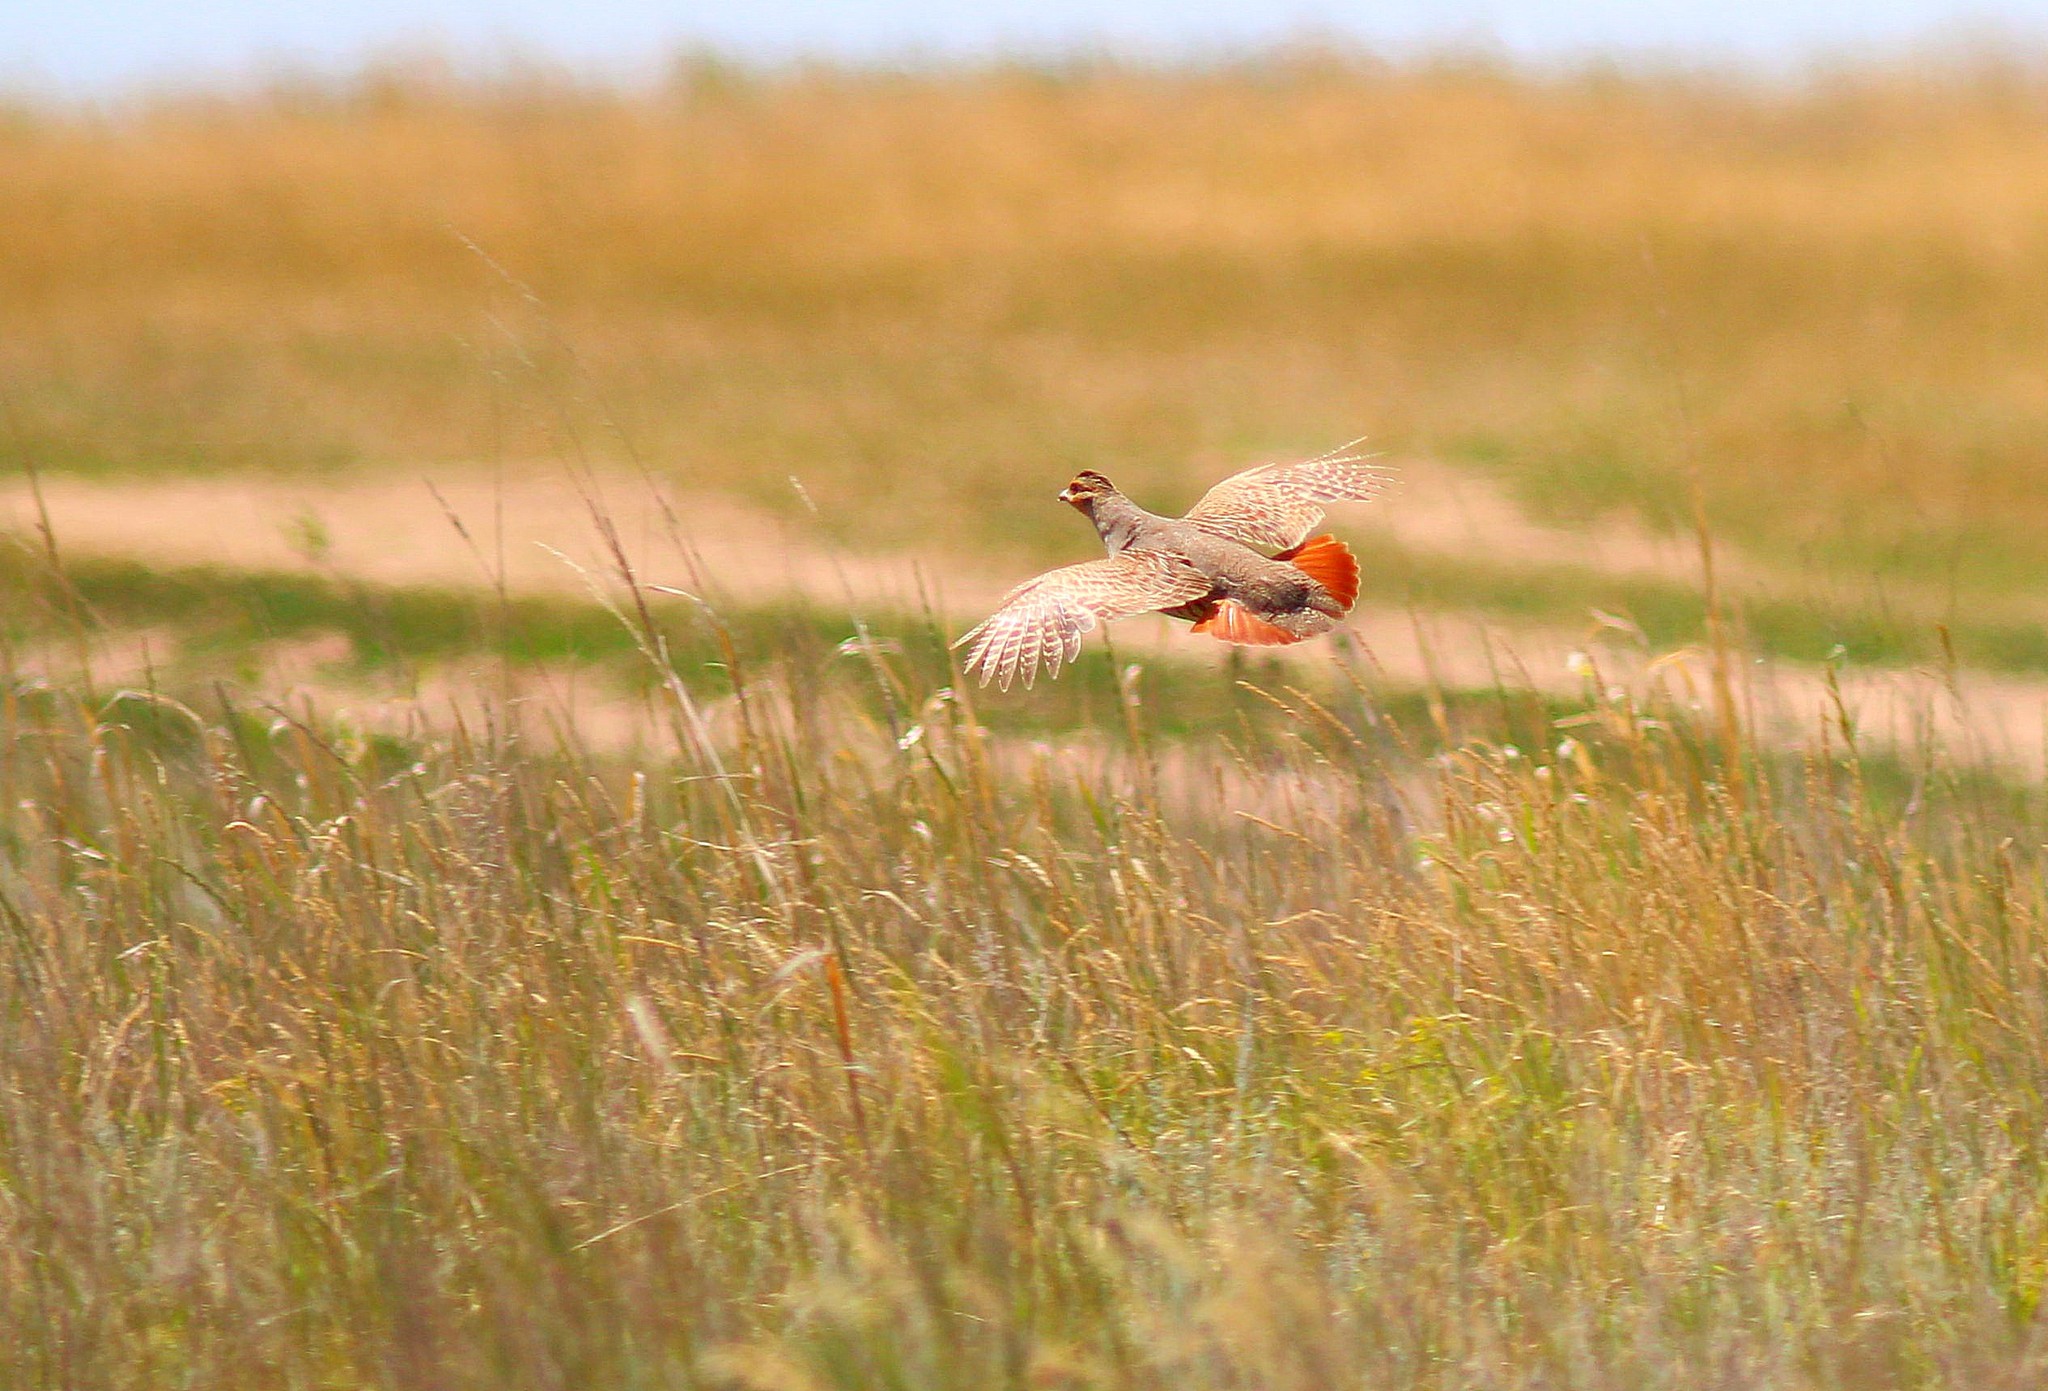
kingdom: Animalia
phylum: Chordata
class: Aves
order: Galliformes
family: Phasianidae
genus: Perdix
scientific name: Perdix perdix
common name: Grey partridge
